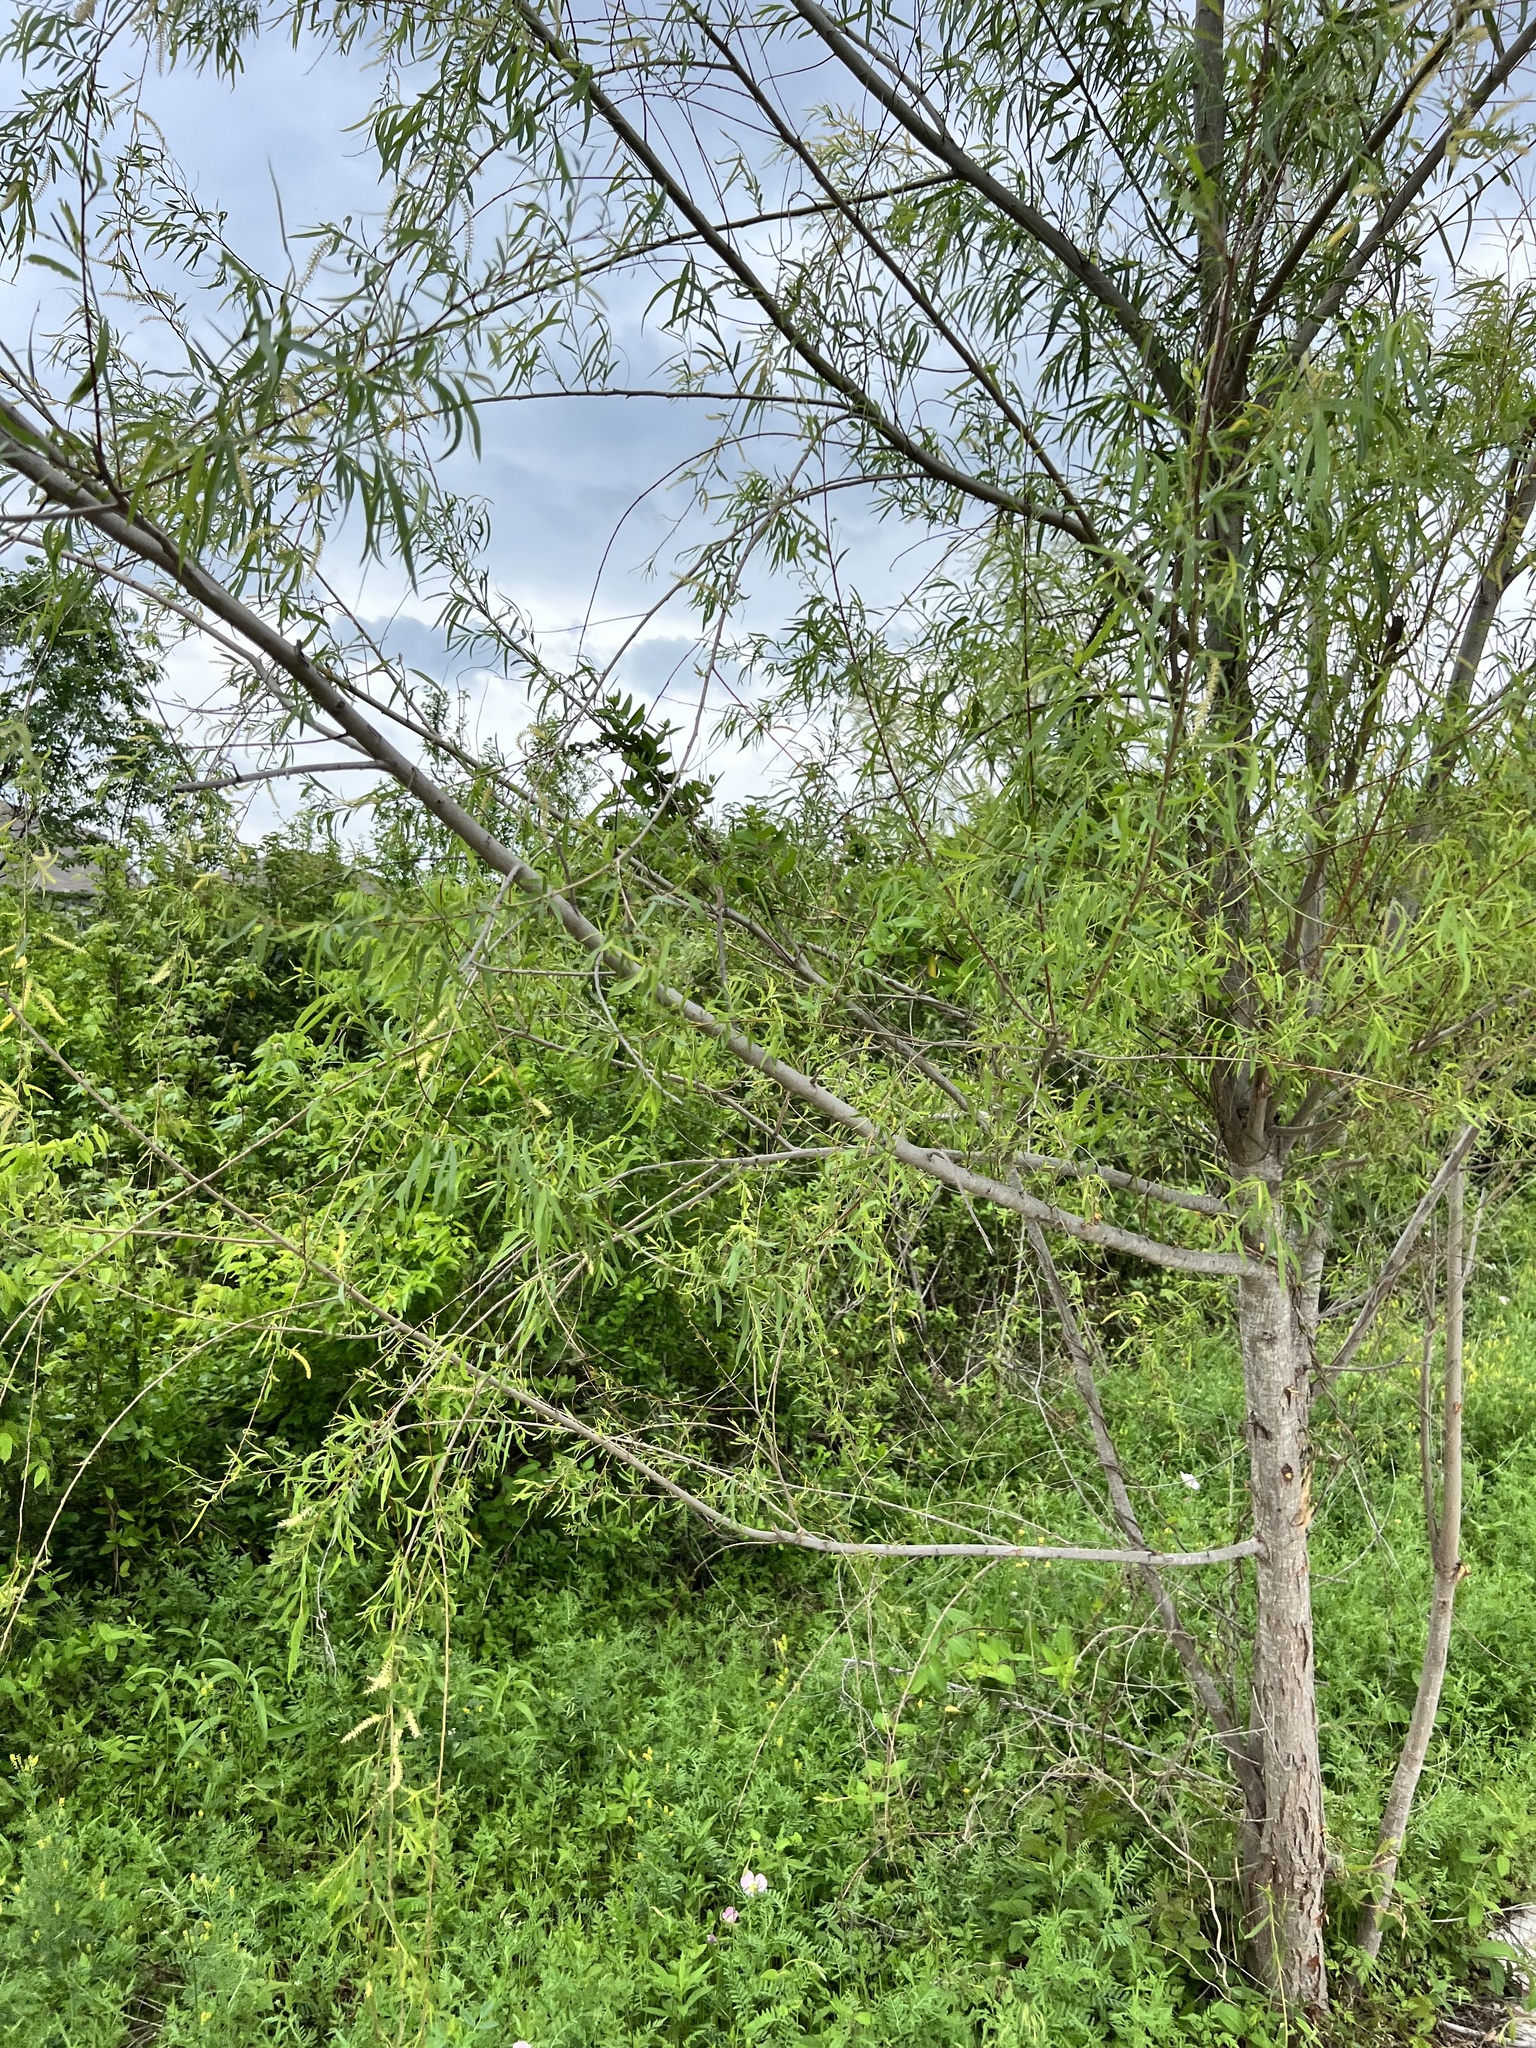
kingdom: Plantae
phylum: Tracheophyta
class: Magnoliopsida
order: Malpighiales
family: Salicaceae
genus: Salix
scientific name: Salix nigra
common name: Black willow
